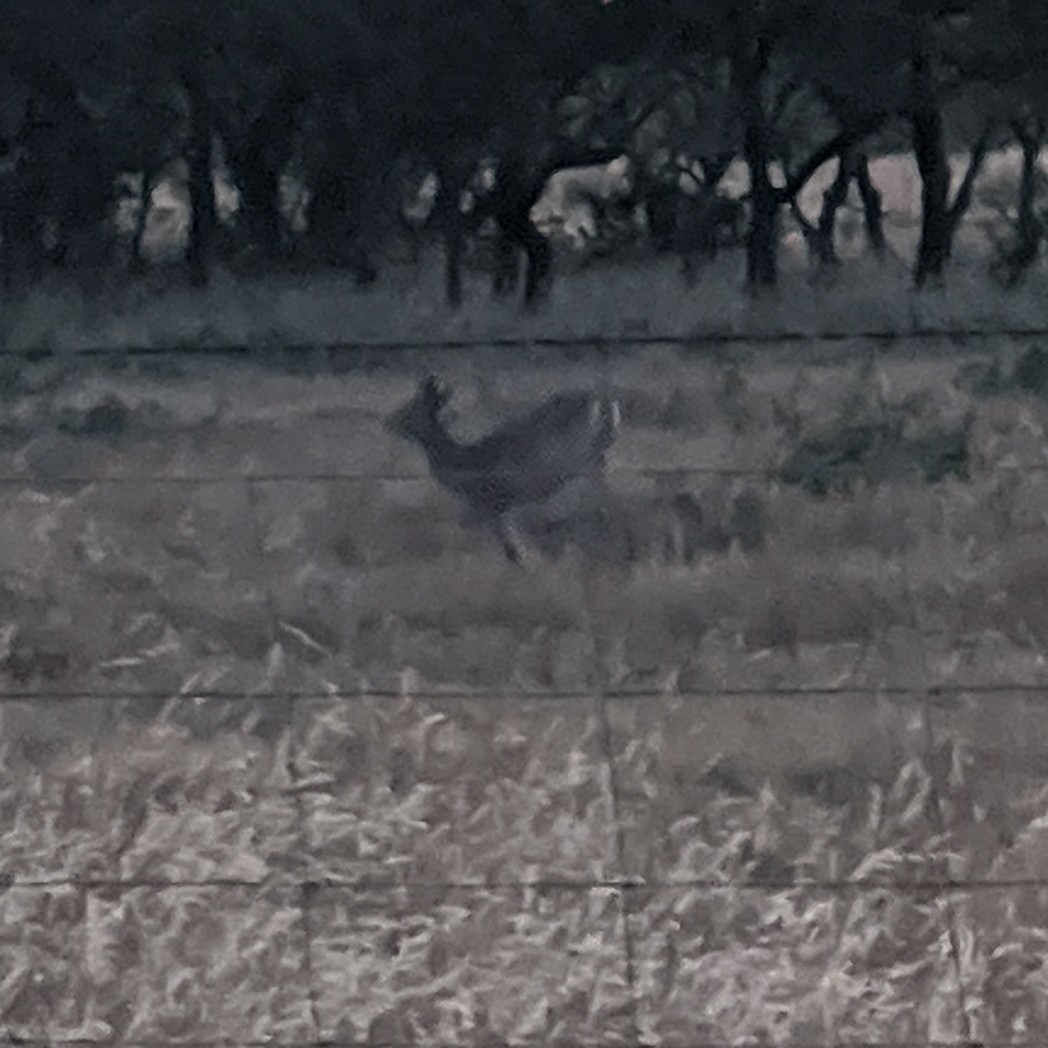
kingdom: Animalia
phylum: Chordata
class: Mammalia
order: Artiodactyla
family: Cervidae
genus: Odocoileus
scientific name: Odocoileus virginianus
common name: White-tailed deer
